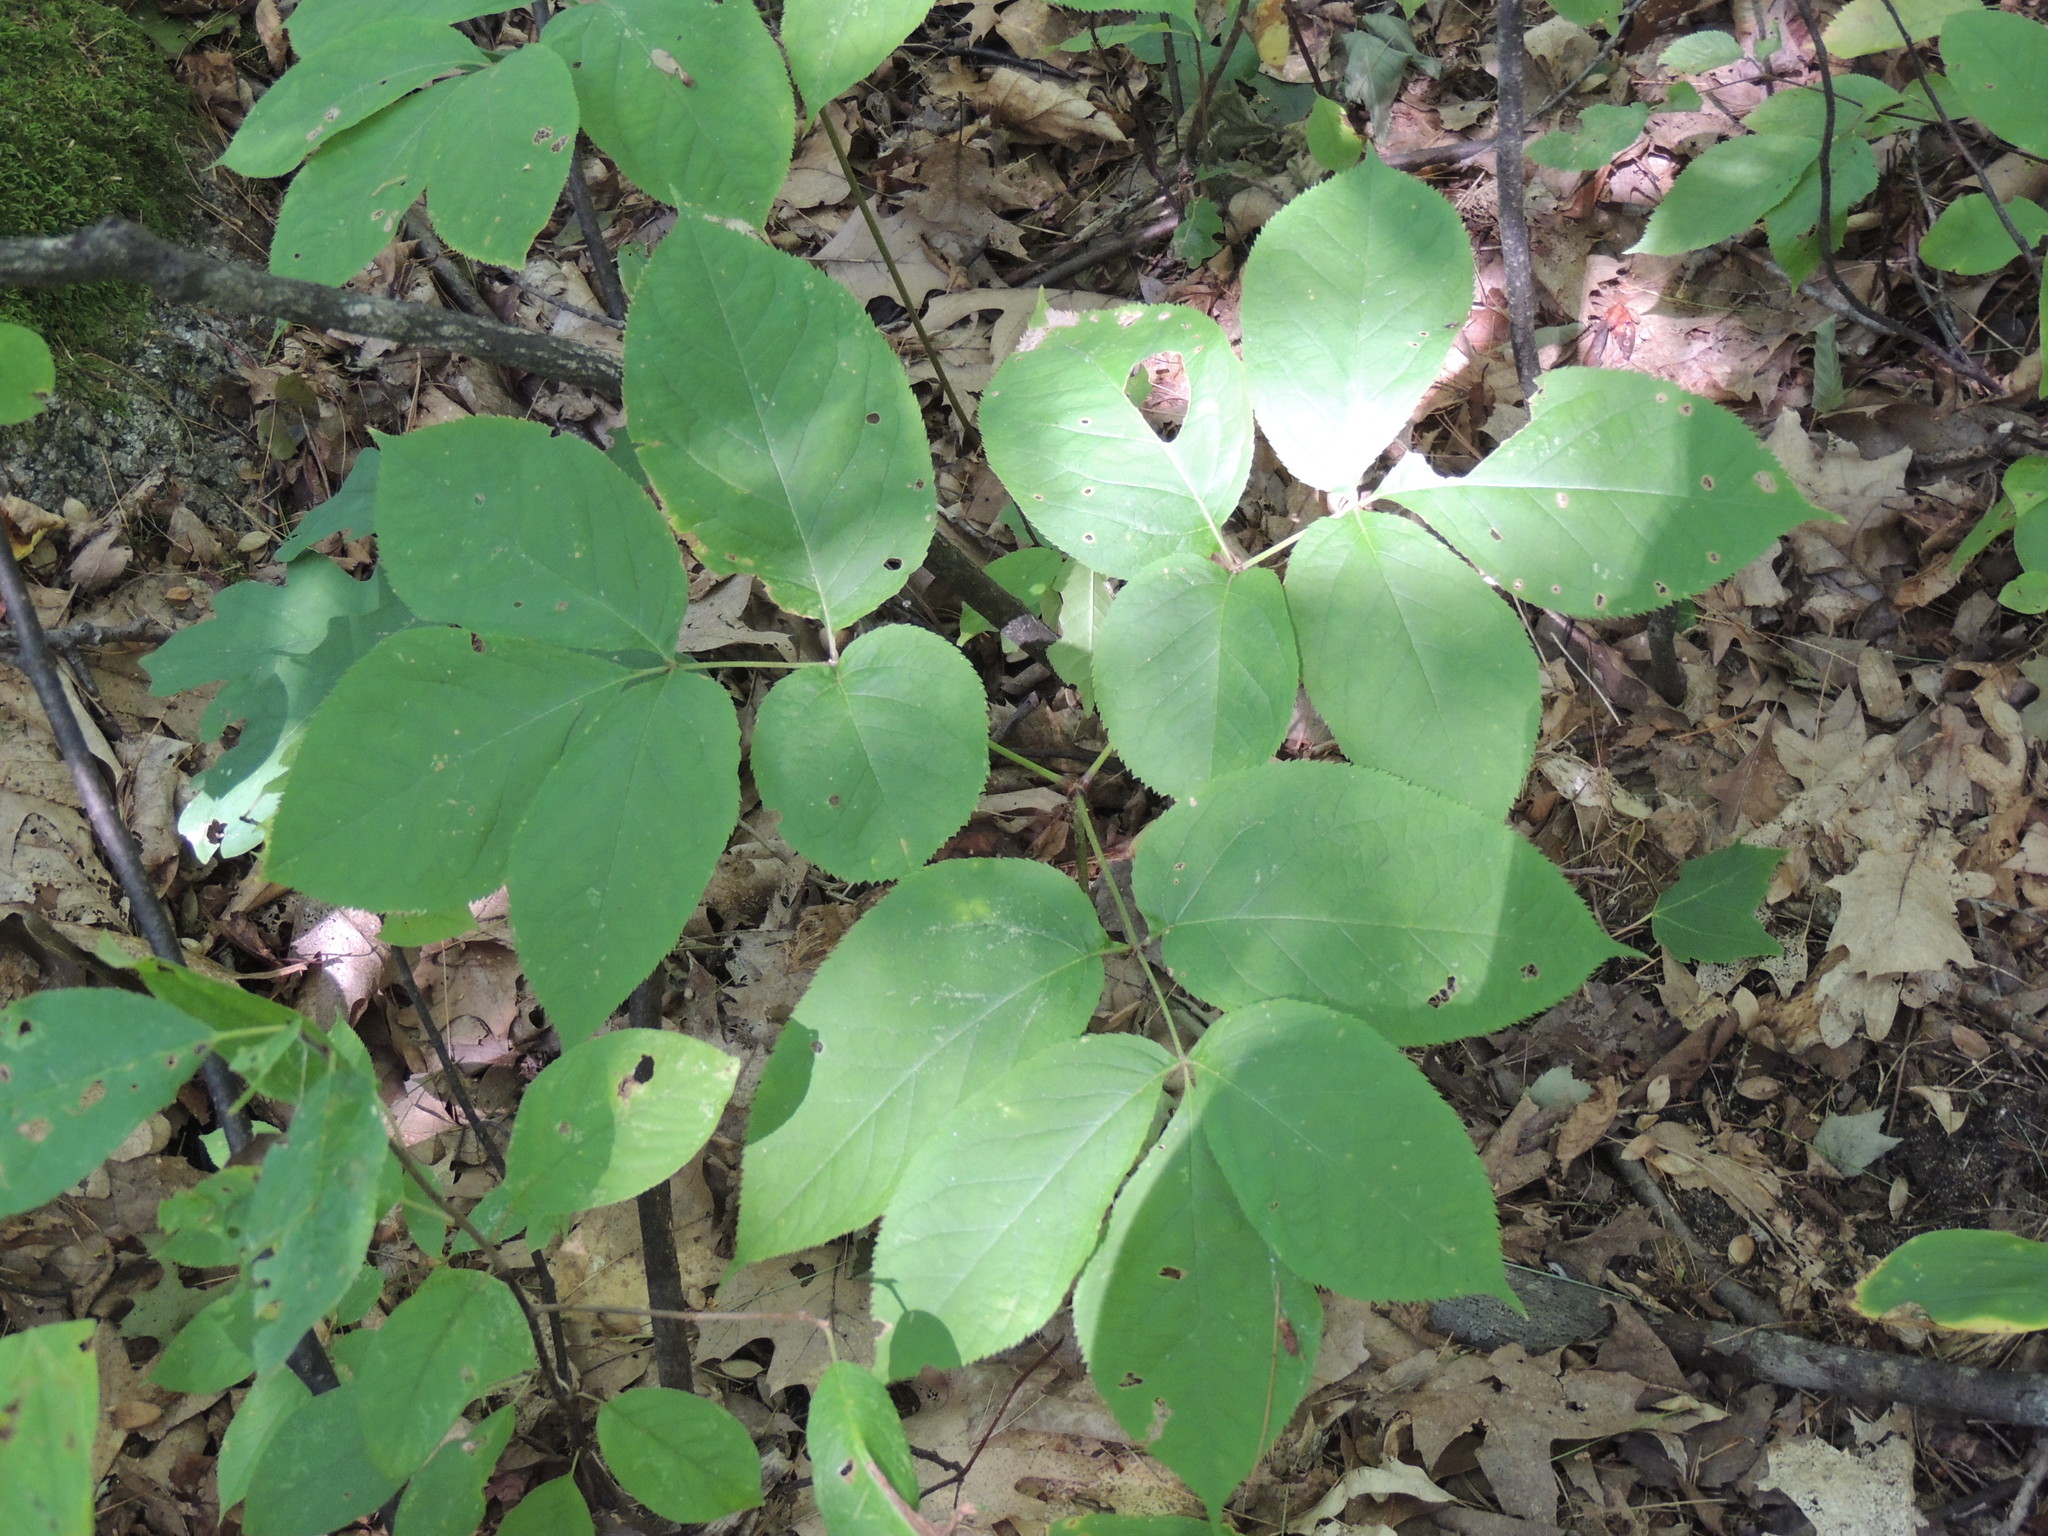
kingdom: Plantae
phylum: Tracheophyta
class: Magnoliopsida
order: Apiales
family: Araliaceae
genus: Aralia
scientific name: Aralia nudicaulis
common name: Wild sarsaparilla
